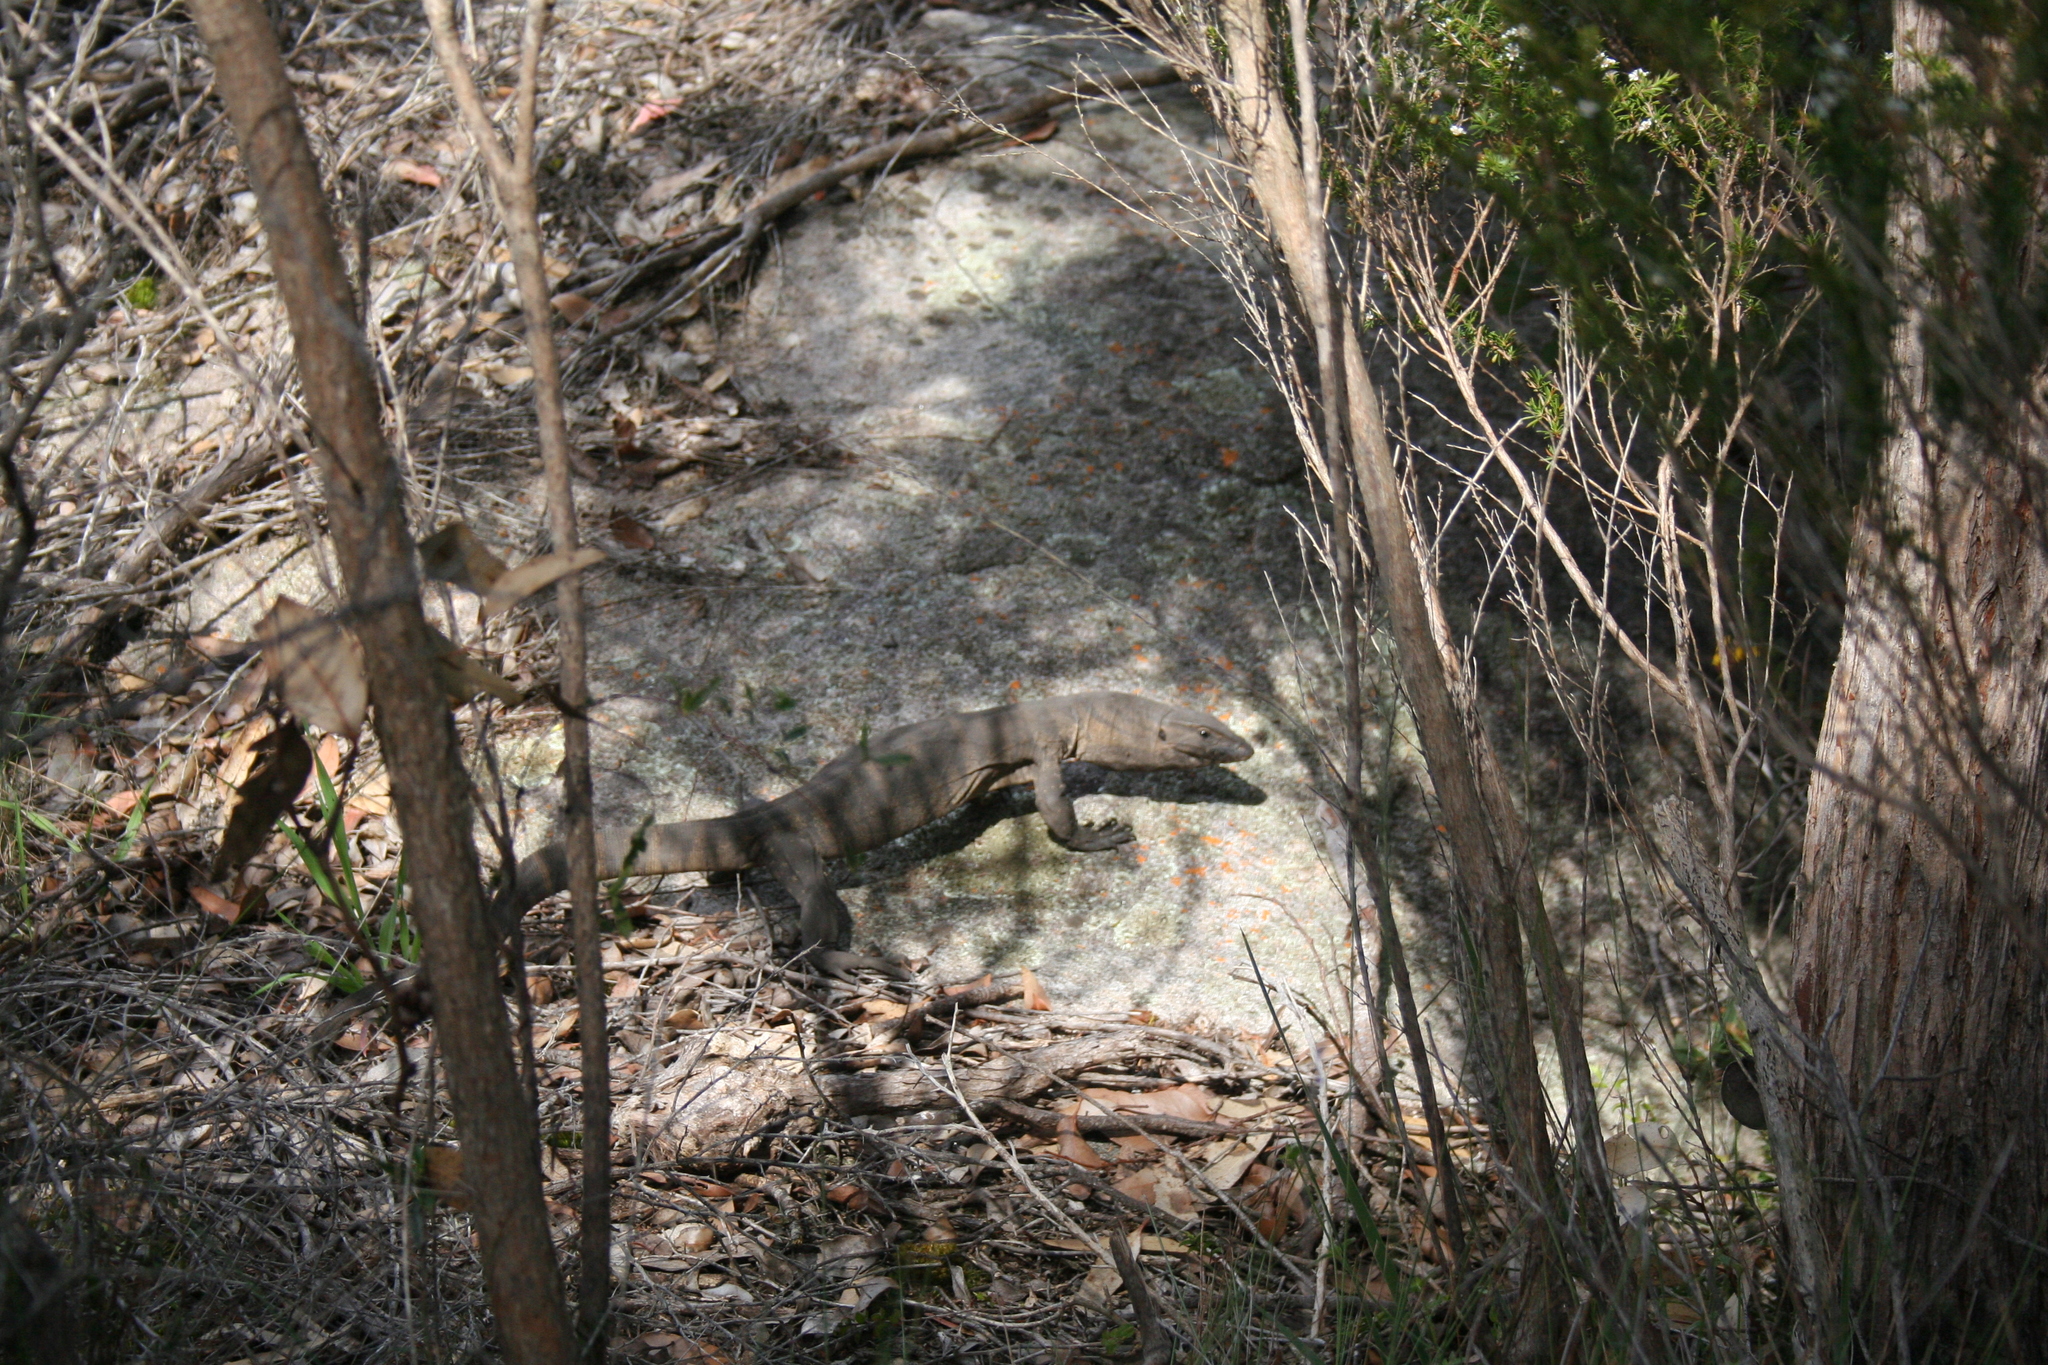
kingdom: Animalia
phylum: Chordata
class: Squamata
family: Varanidae
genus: Varanus
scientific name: Varanus rosenbergi
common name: Heath monitor
